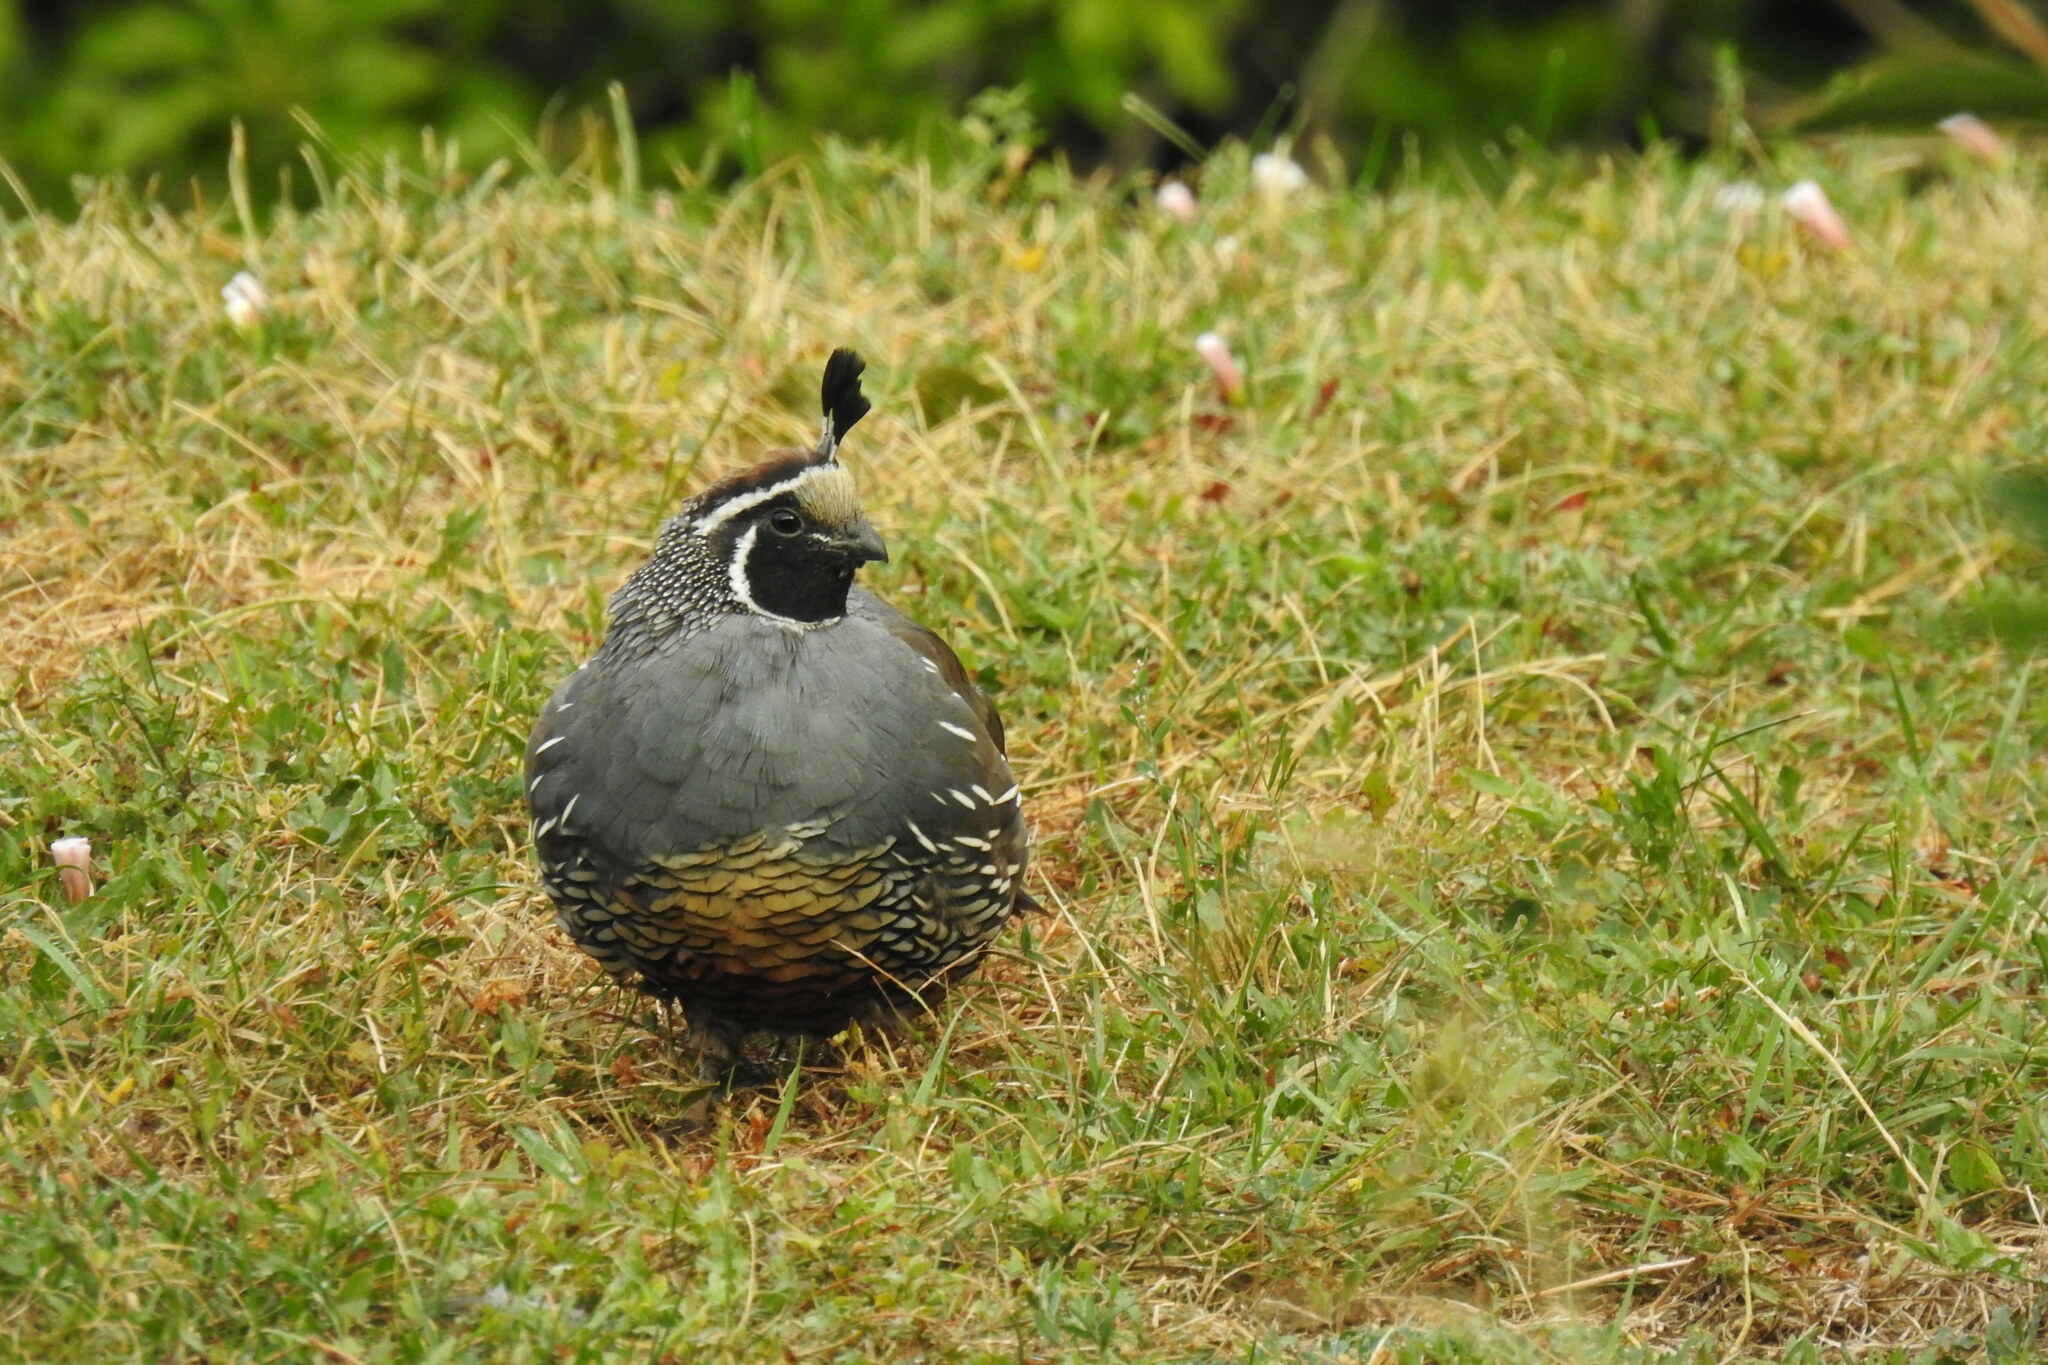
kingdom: Animalia
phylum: Chordata
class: Aves
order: Galliformes
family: Odontophoridae
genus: Callipepla
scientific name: Callipepla californica
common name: California quail
